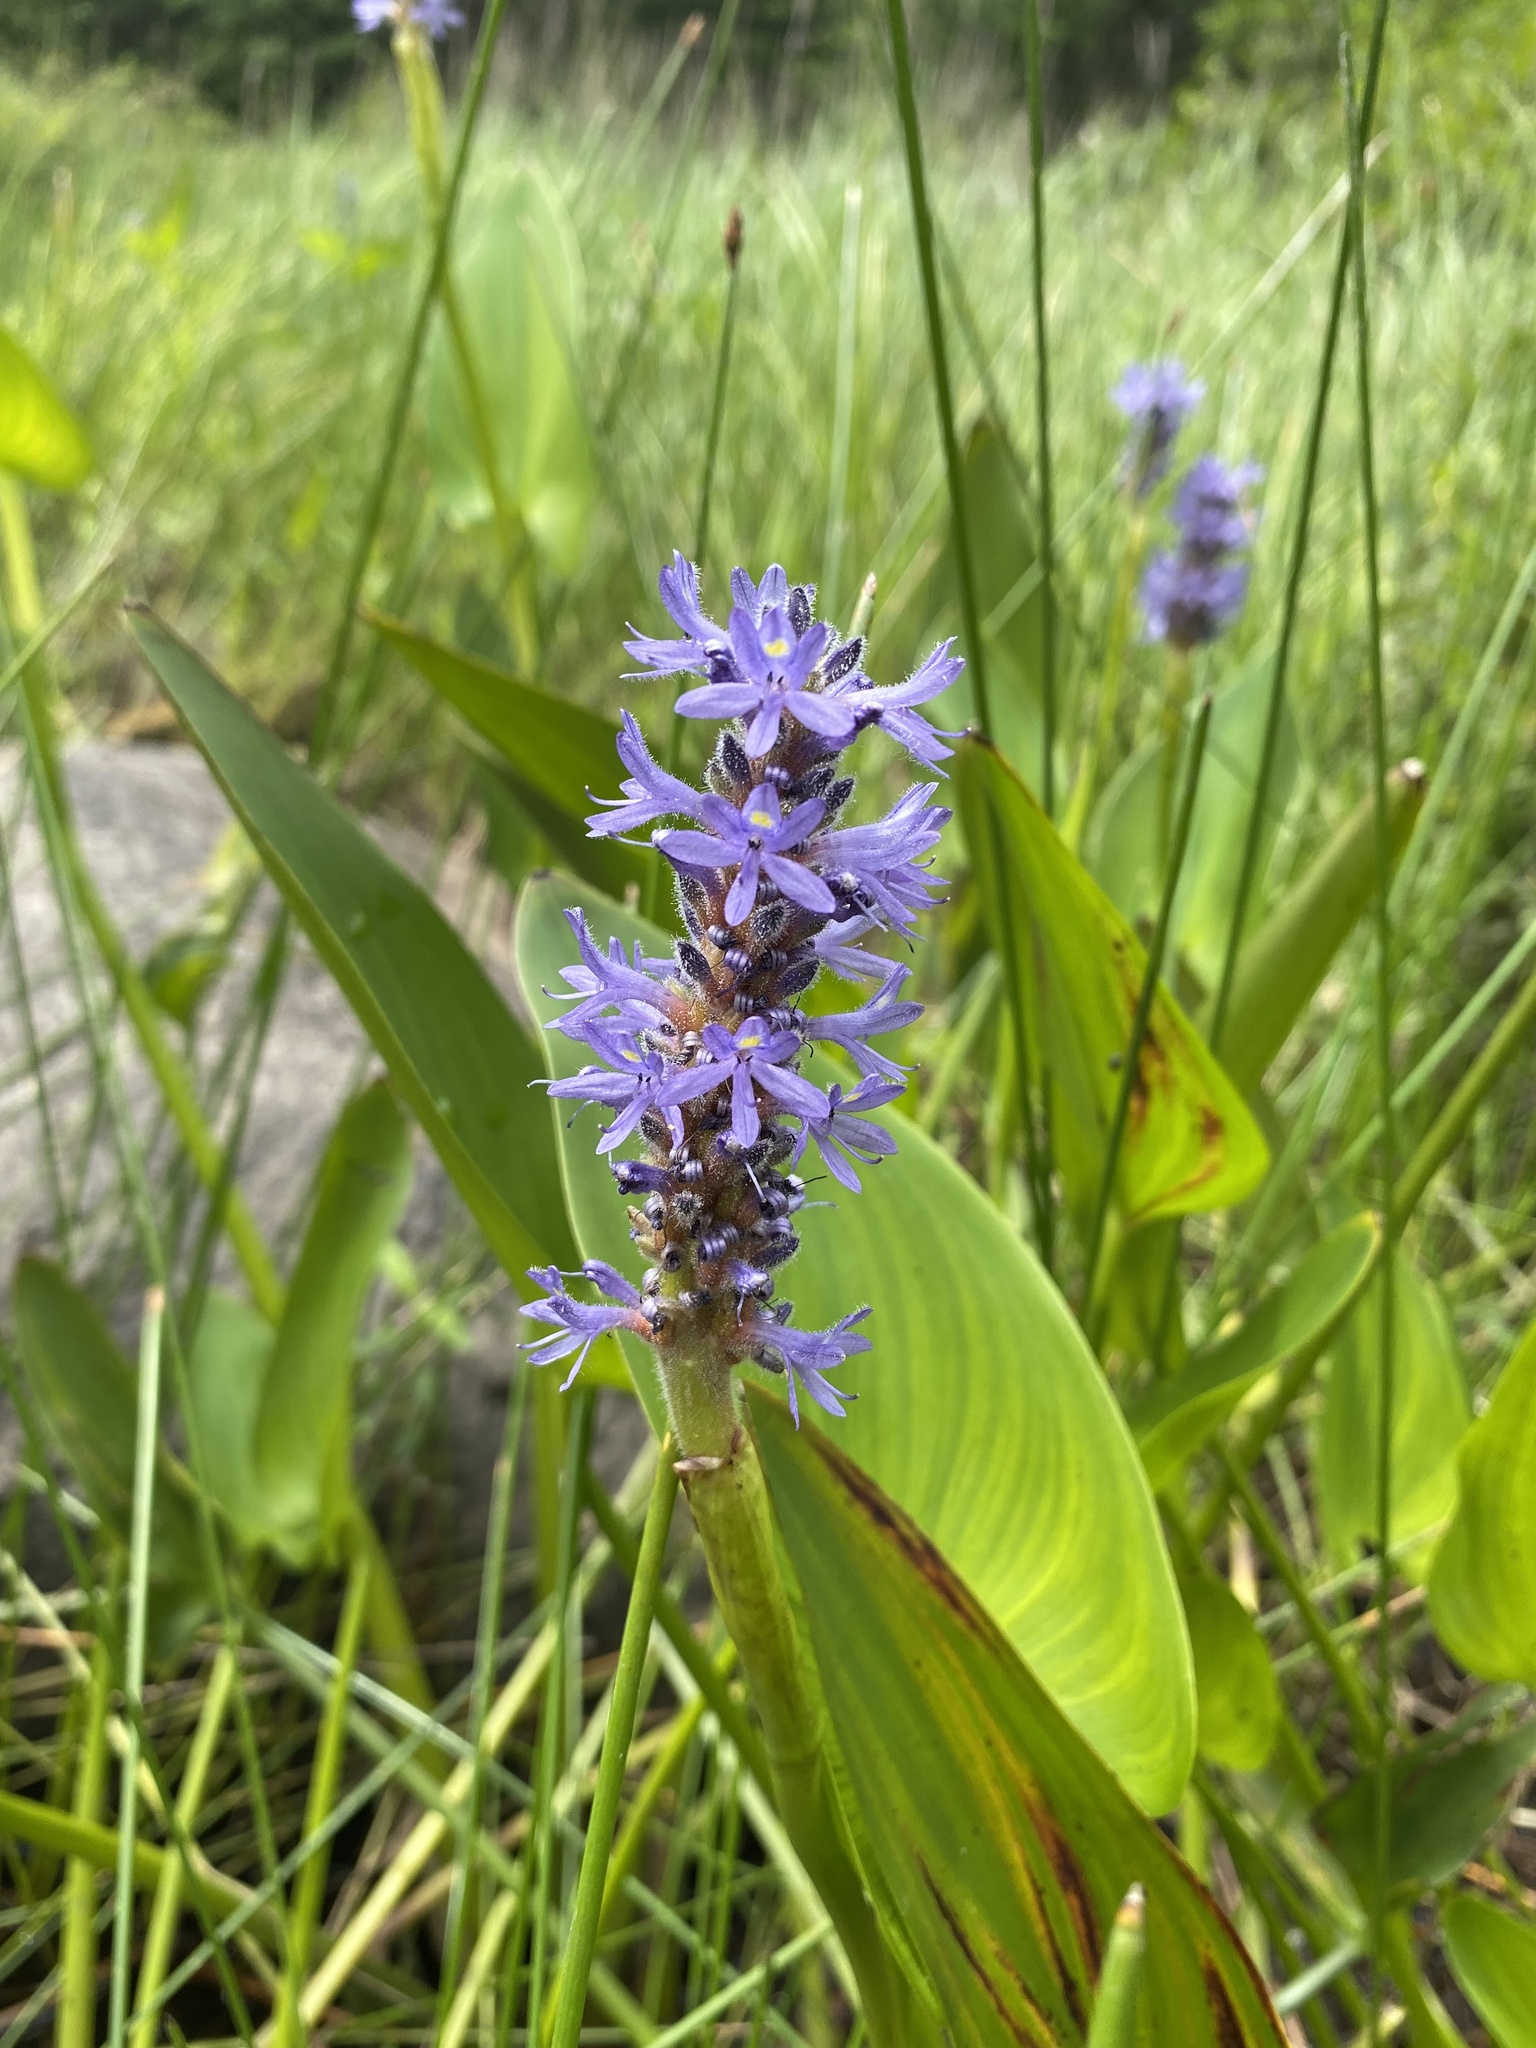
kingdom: Plantae
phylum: Tracheophyta
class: Liliopsida
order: Commelinales
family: Pontederiaceae
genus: Pontederia
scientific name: Pontederia cordata
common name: Pickerelweed
